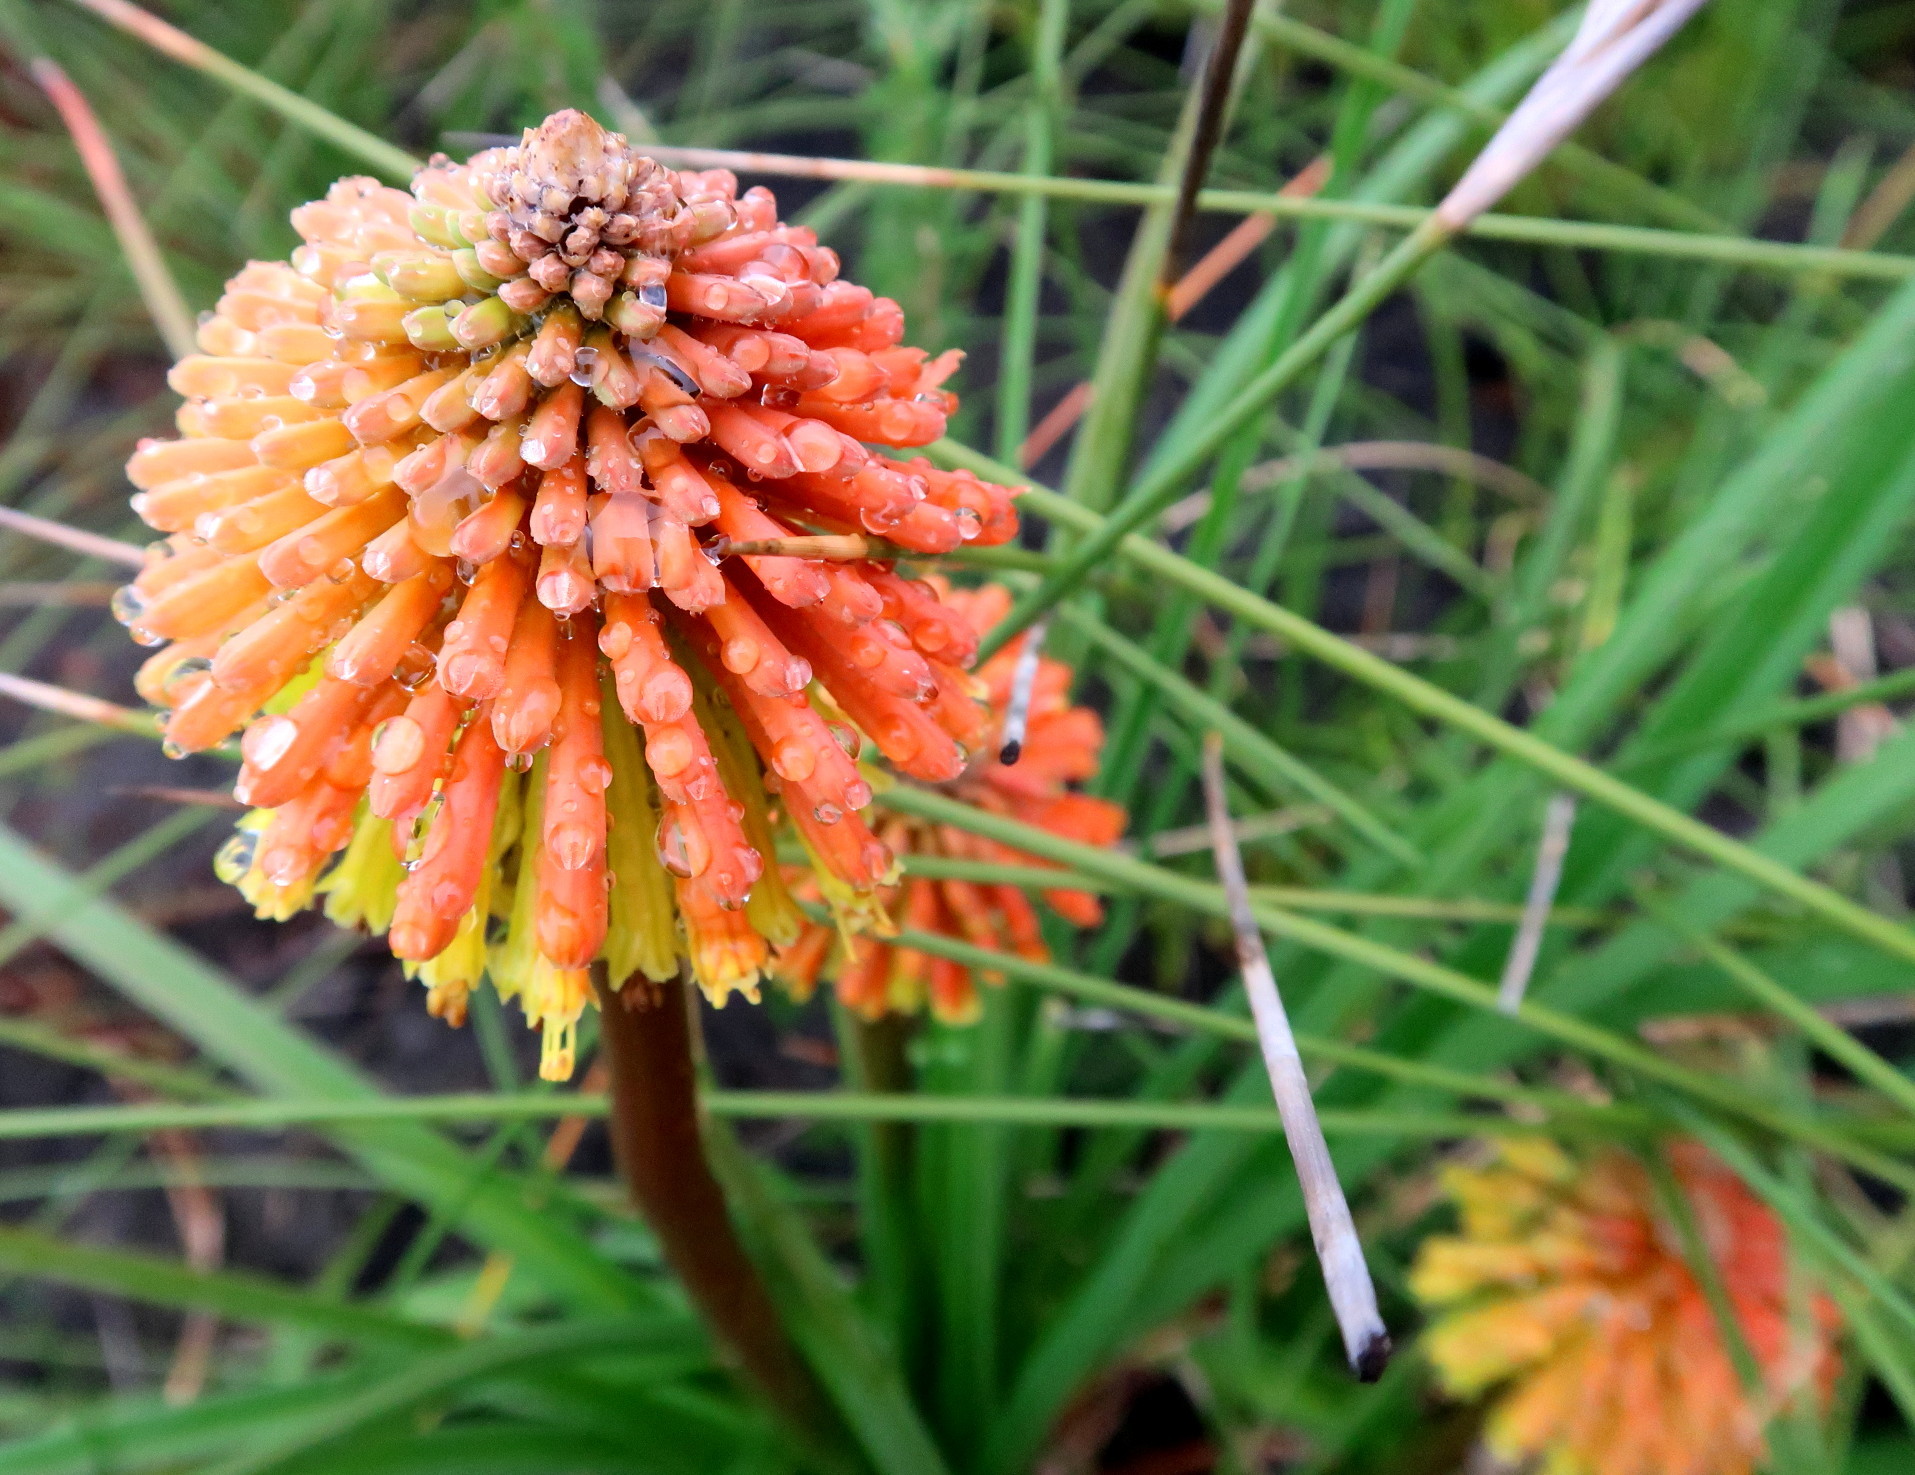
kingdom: Plantae
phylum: Tracheophyta
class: Liliopsida
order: Asparagales
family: Asphodelaceae
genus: Kniphofia
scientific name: Kniphofia uvaria
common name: Red-hot-poker
